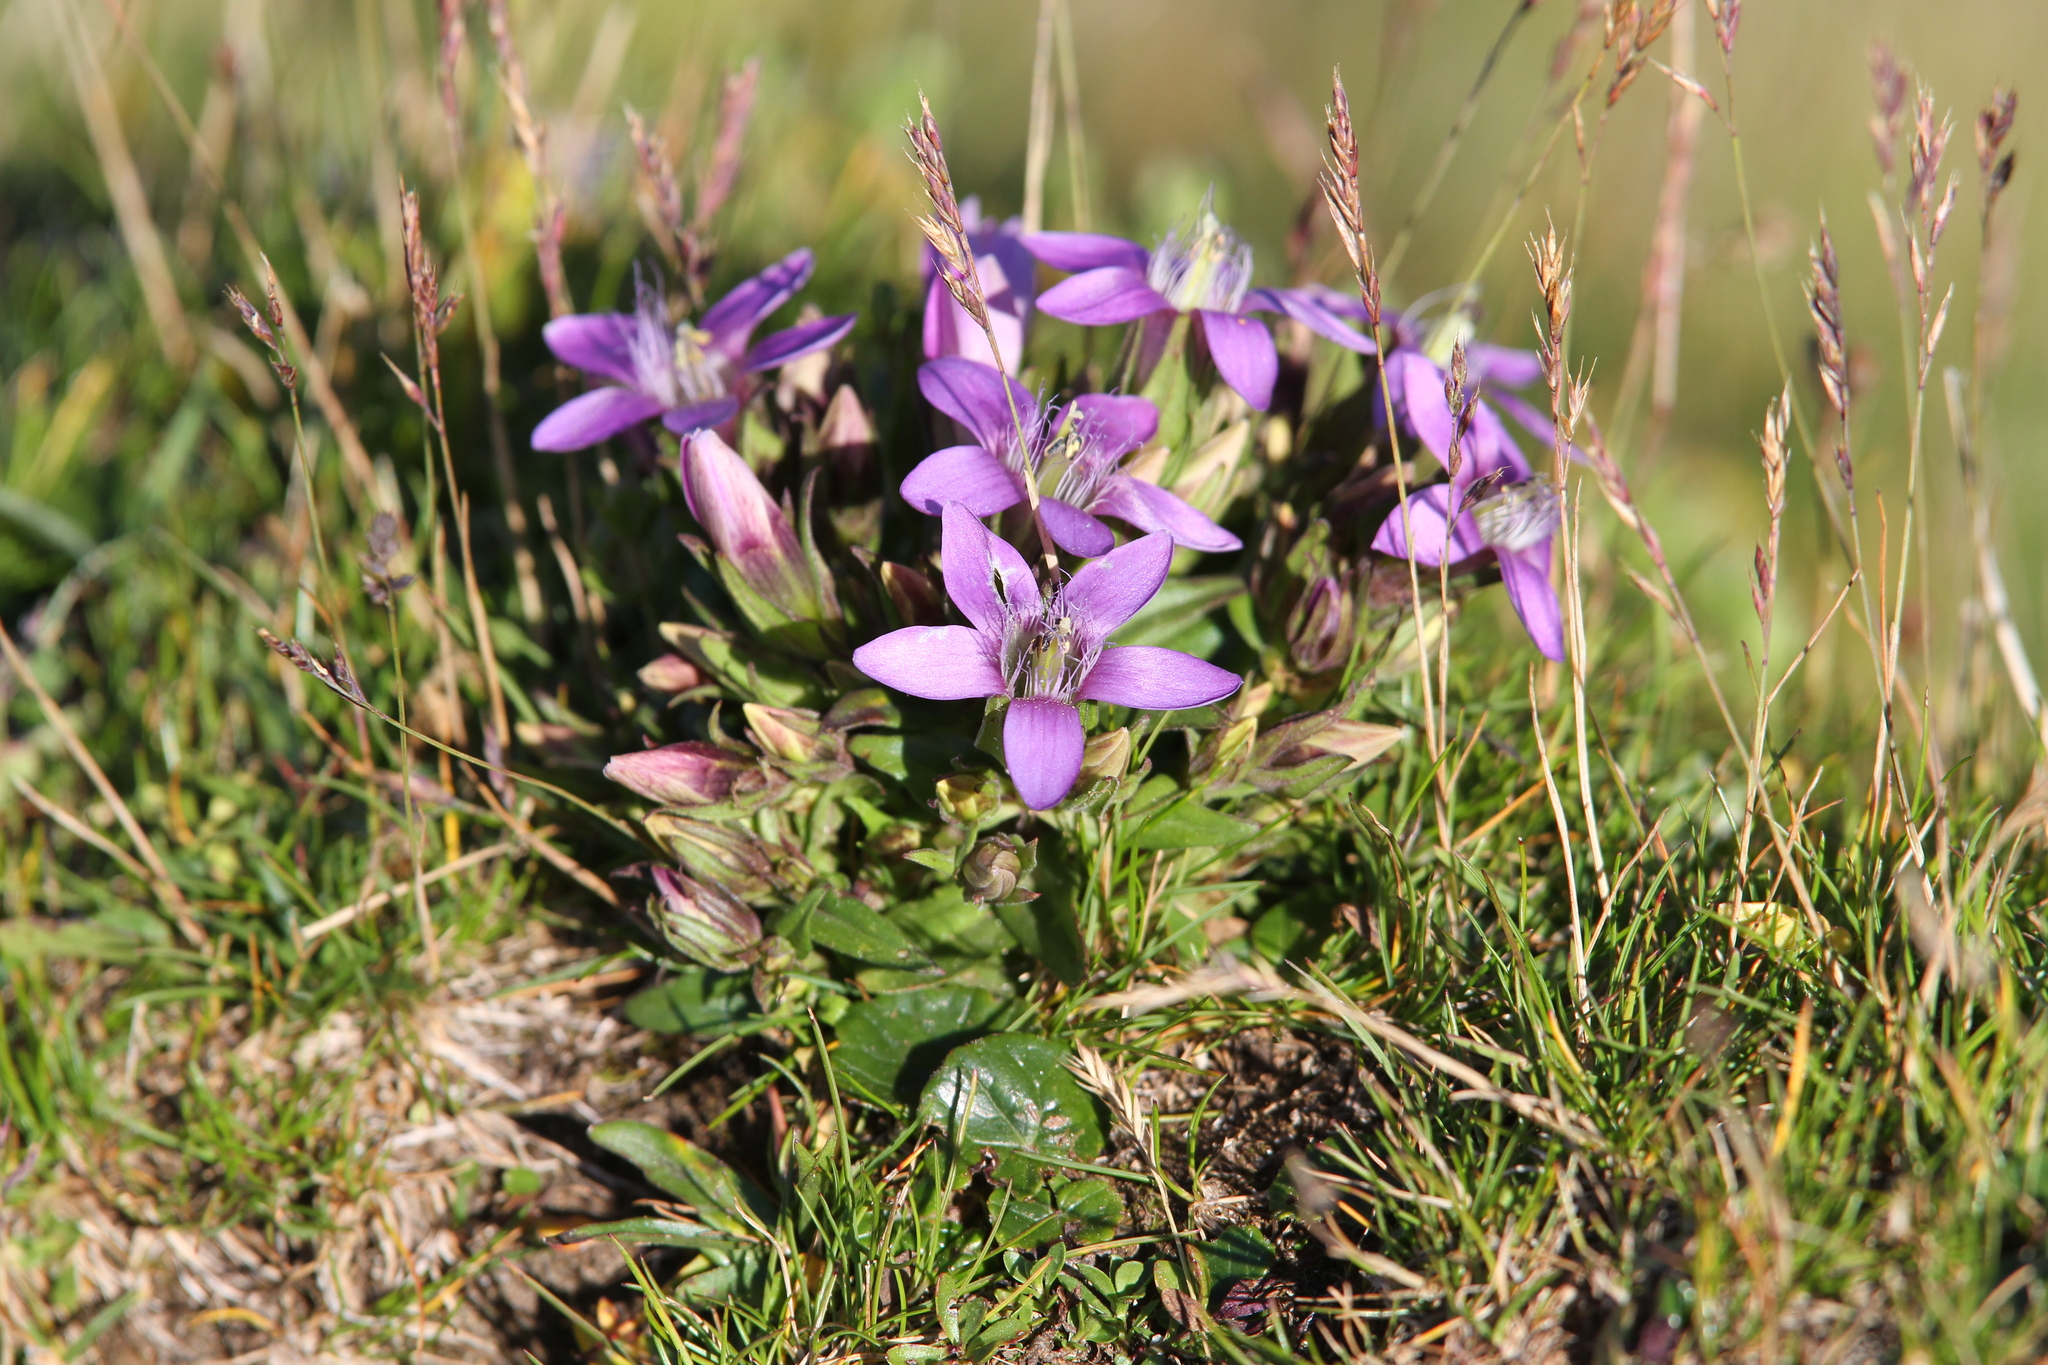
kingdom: Plantae
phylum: Tracheophyta
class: Magnoliopsida
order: Gentianales
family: Gentianaceae
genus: Gentianella
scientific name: Gentianella obtusifolia
